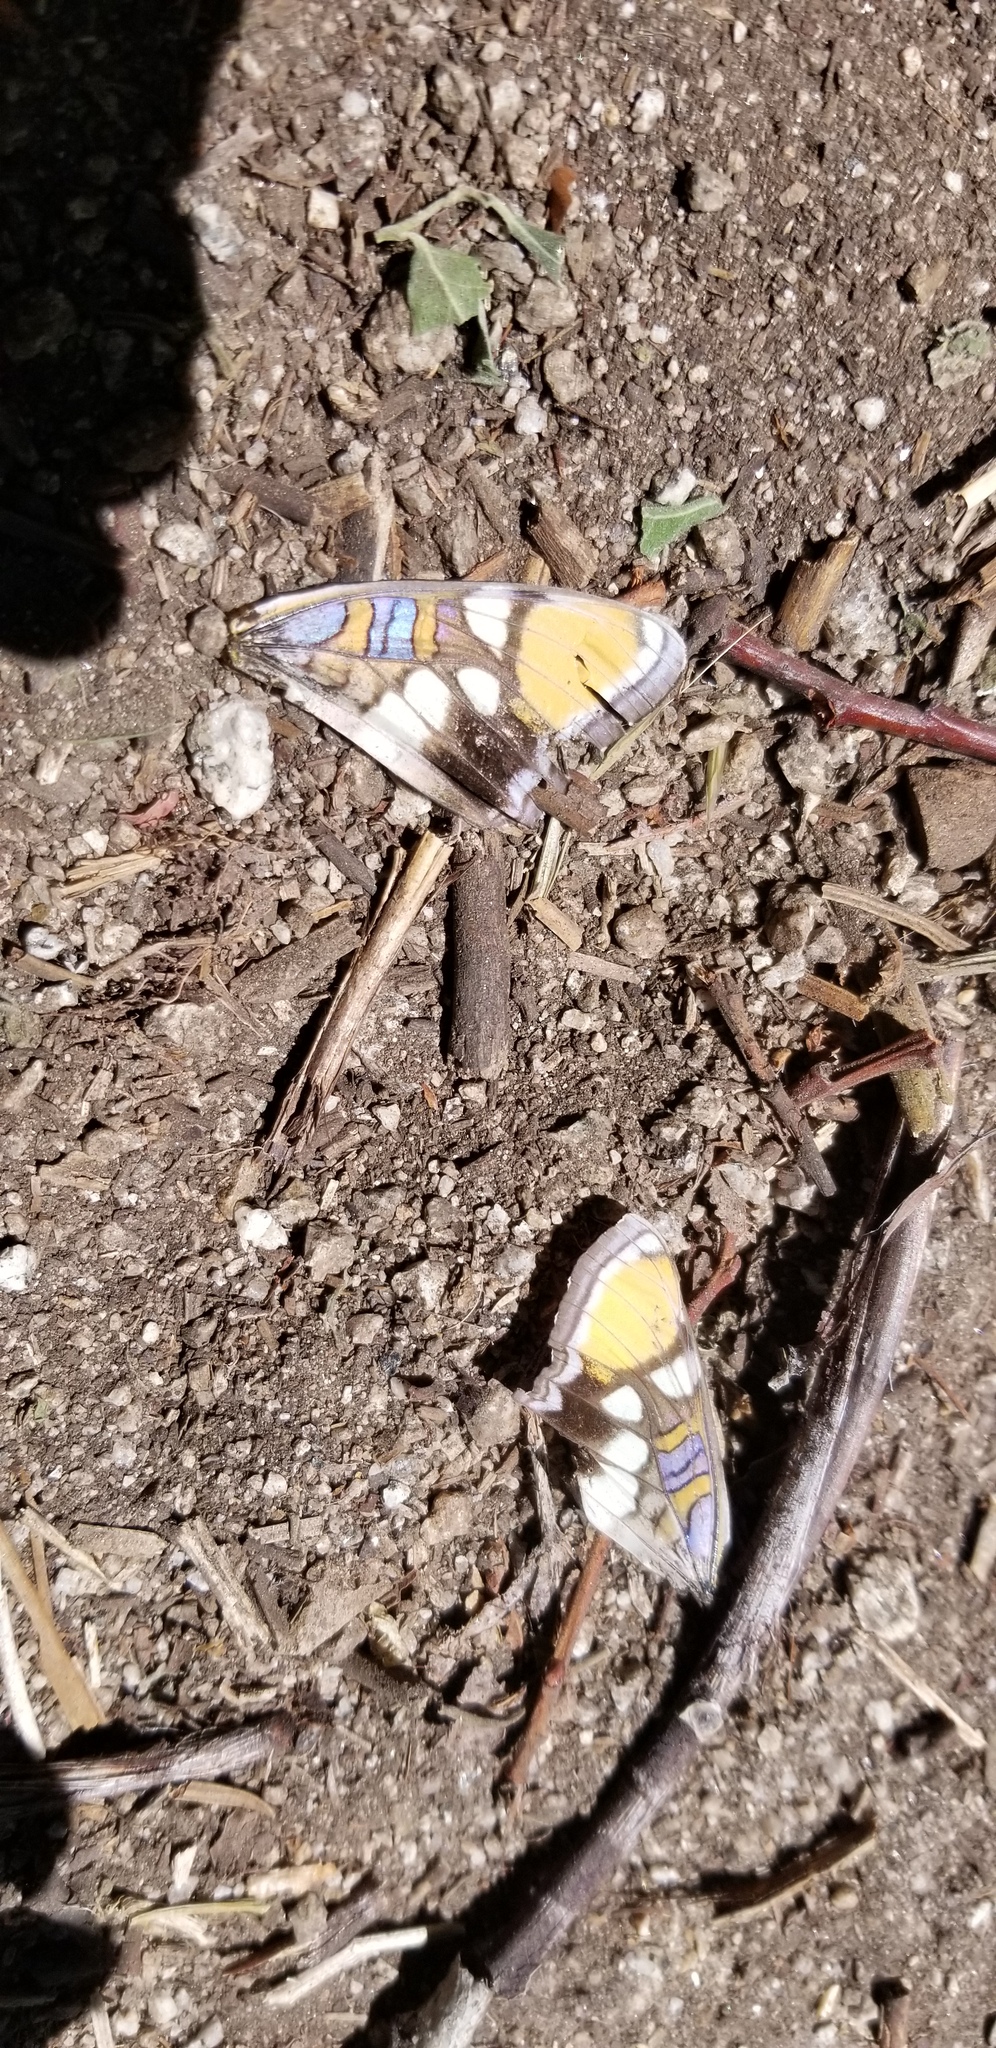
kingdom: Animalia
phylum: Arthropoda
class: Insecta
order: Lepidoptera
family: Nymphalidae
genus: Limenitis
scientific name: Limenitis bredowii
